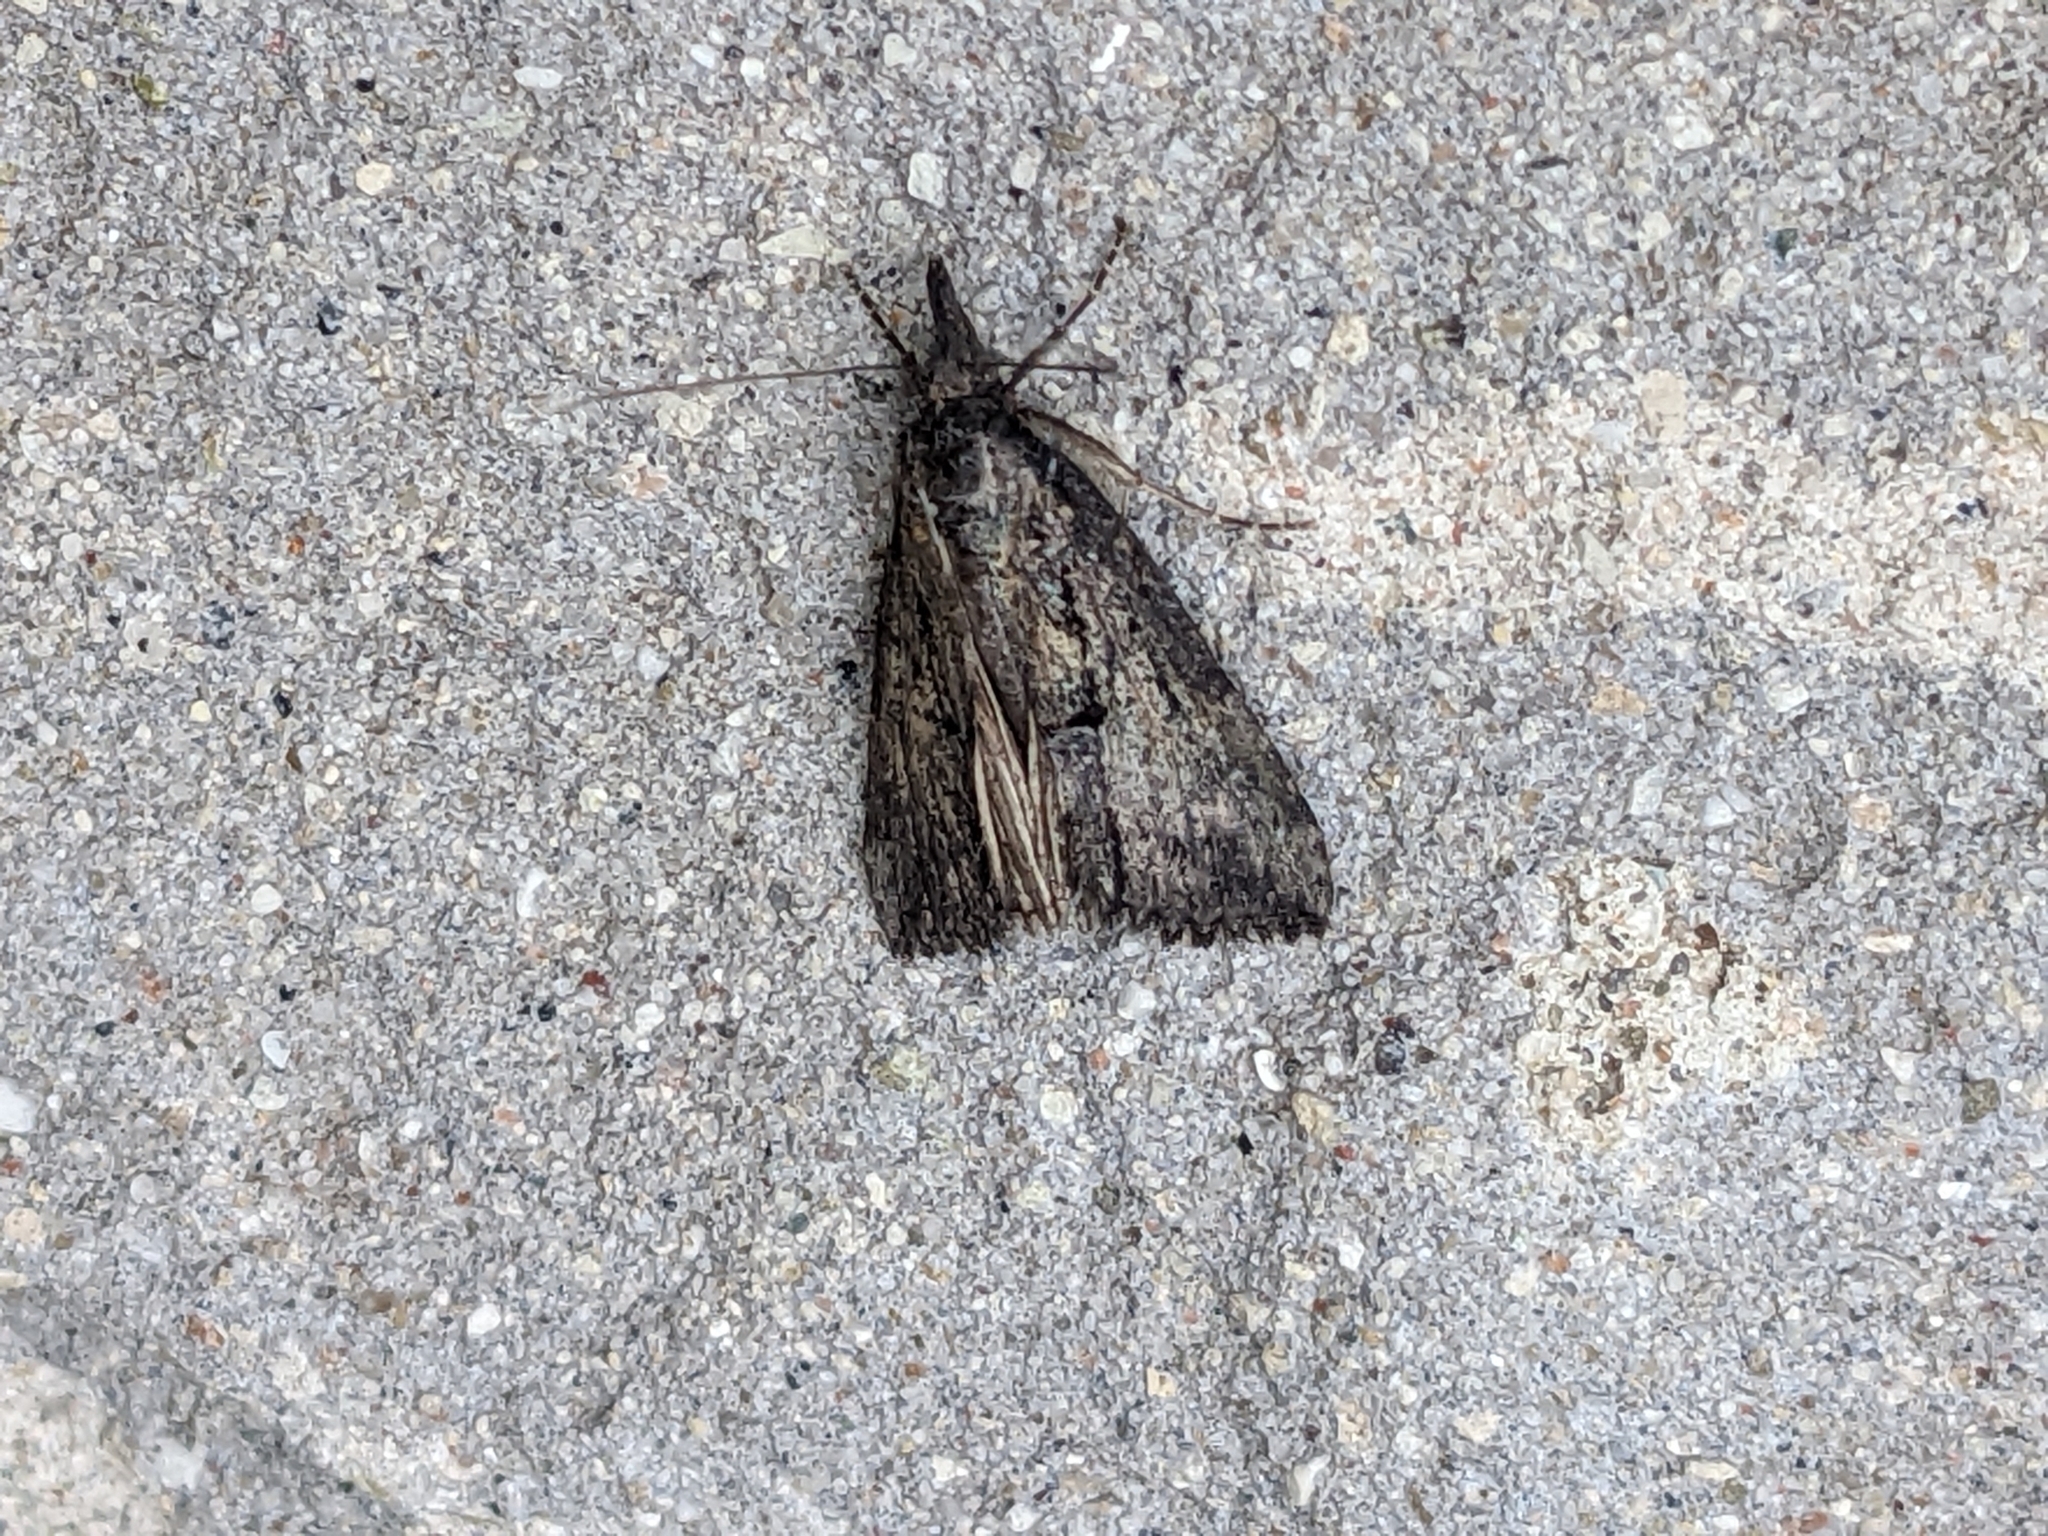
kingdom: Animalia
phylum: Arthropoda
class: Insecta
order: Lepidoptera
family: Erebidae
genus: Hypena
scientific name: Hypena scabra
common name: Green cloverworm
